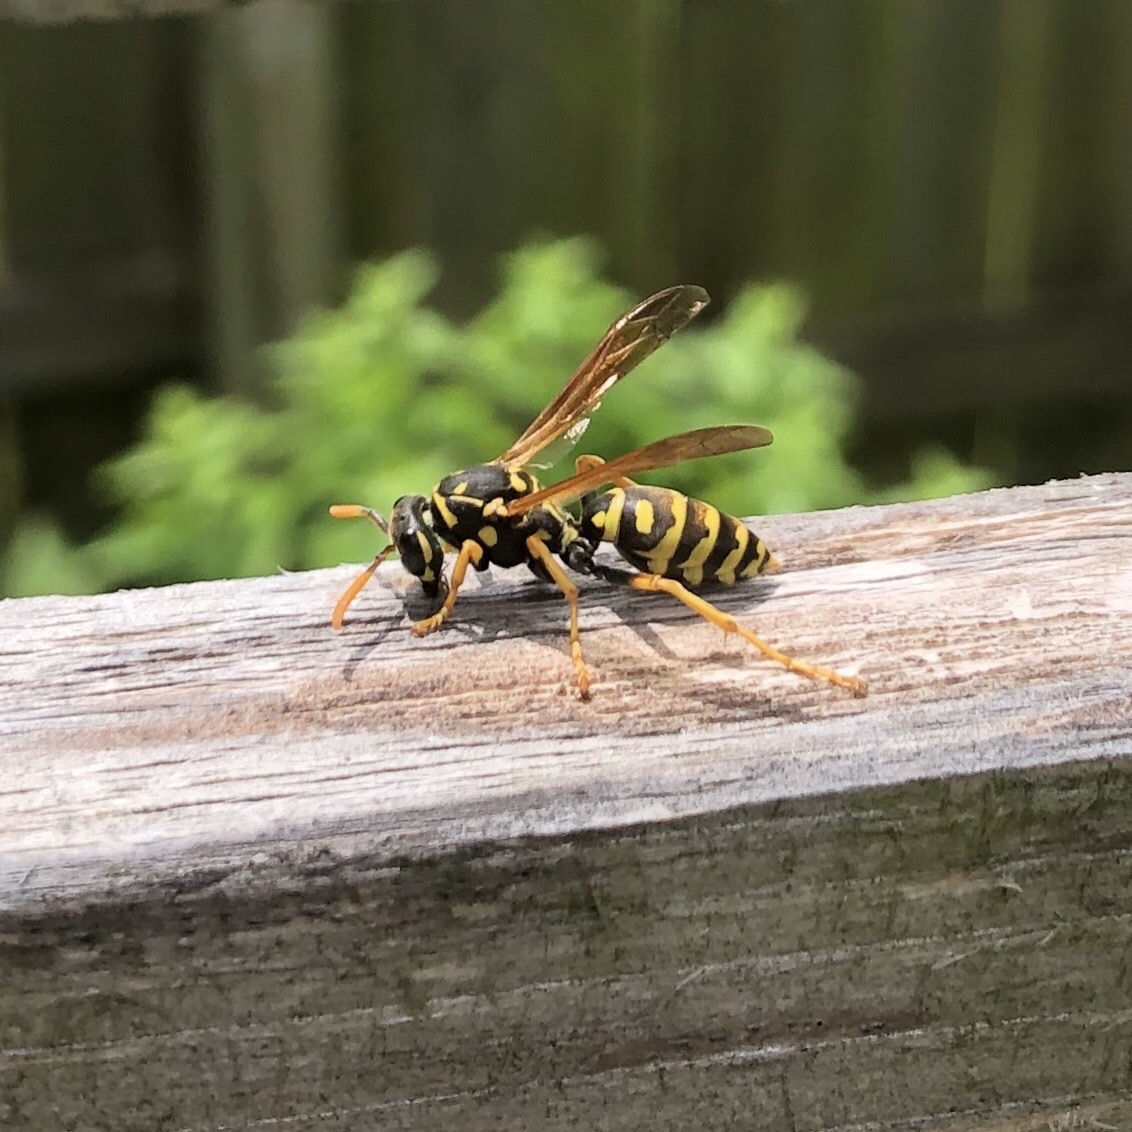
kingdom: Animalia
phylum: Arthropoda
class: Insecta
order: Hymenoptera
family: Eumenidae
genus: Polistes
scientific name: Polistes dominula
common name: Paper wasp
